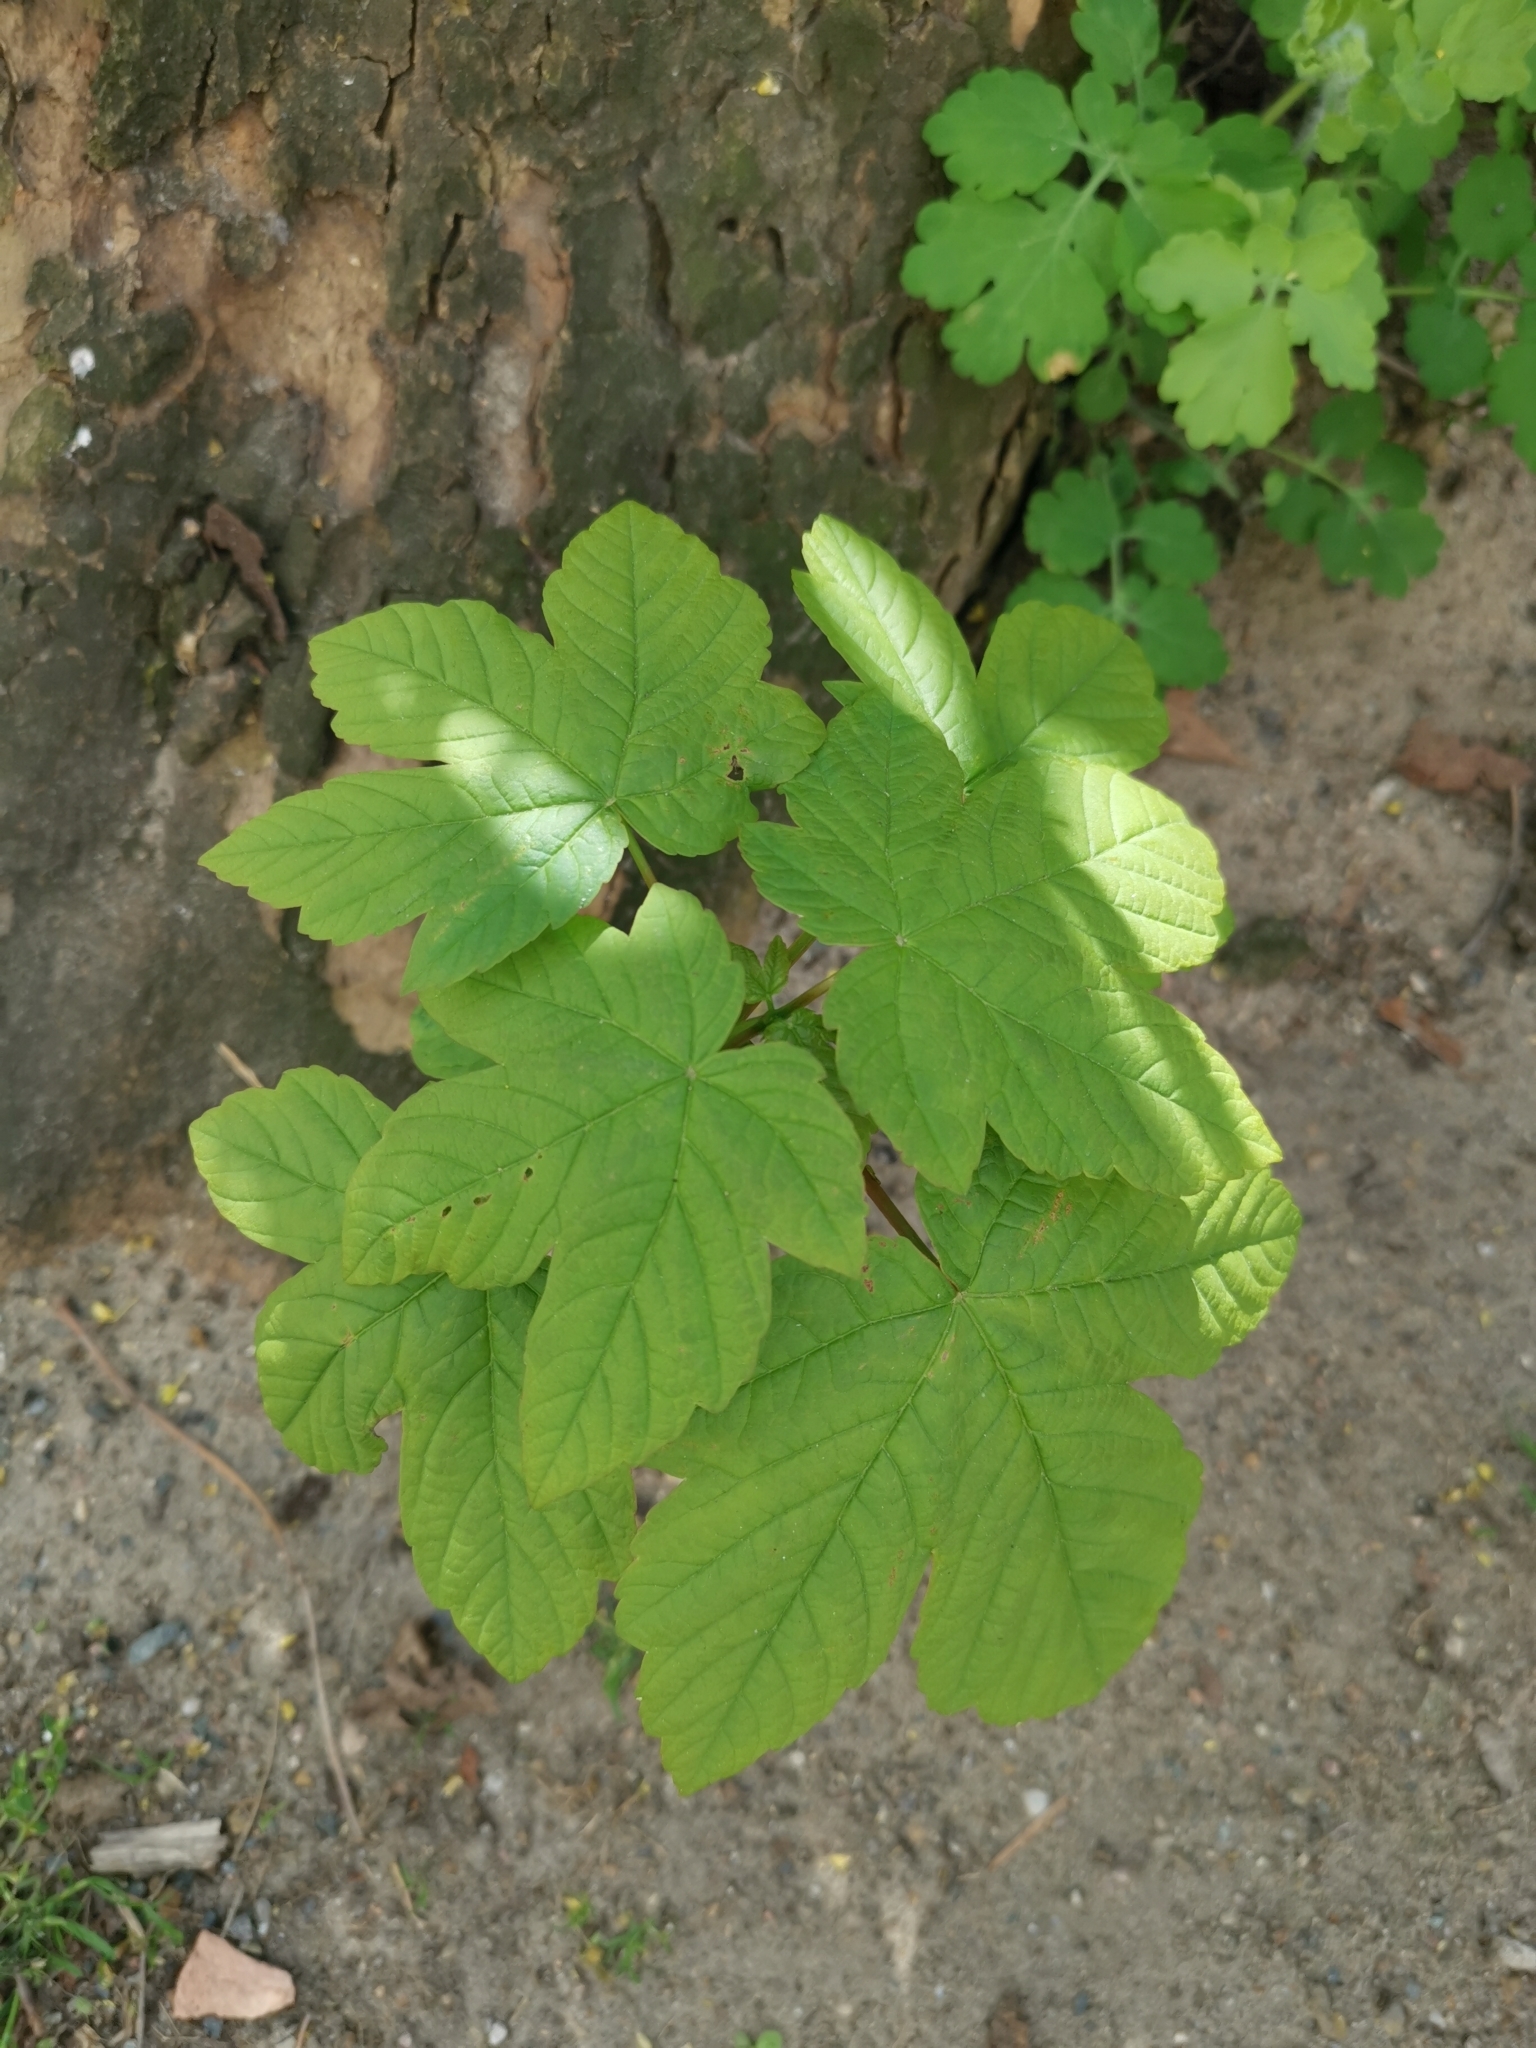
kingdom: Plantae
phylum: Tracheophyta
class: Magnoliopsida
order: Sapindales
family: Sapindaceae
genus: Acer
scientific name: Acer pseudoplatanus
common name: Sycamore
